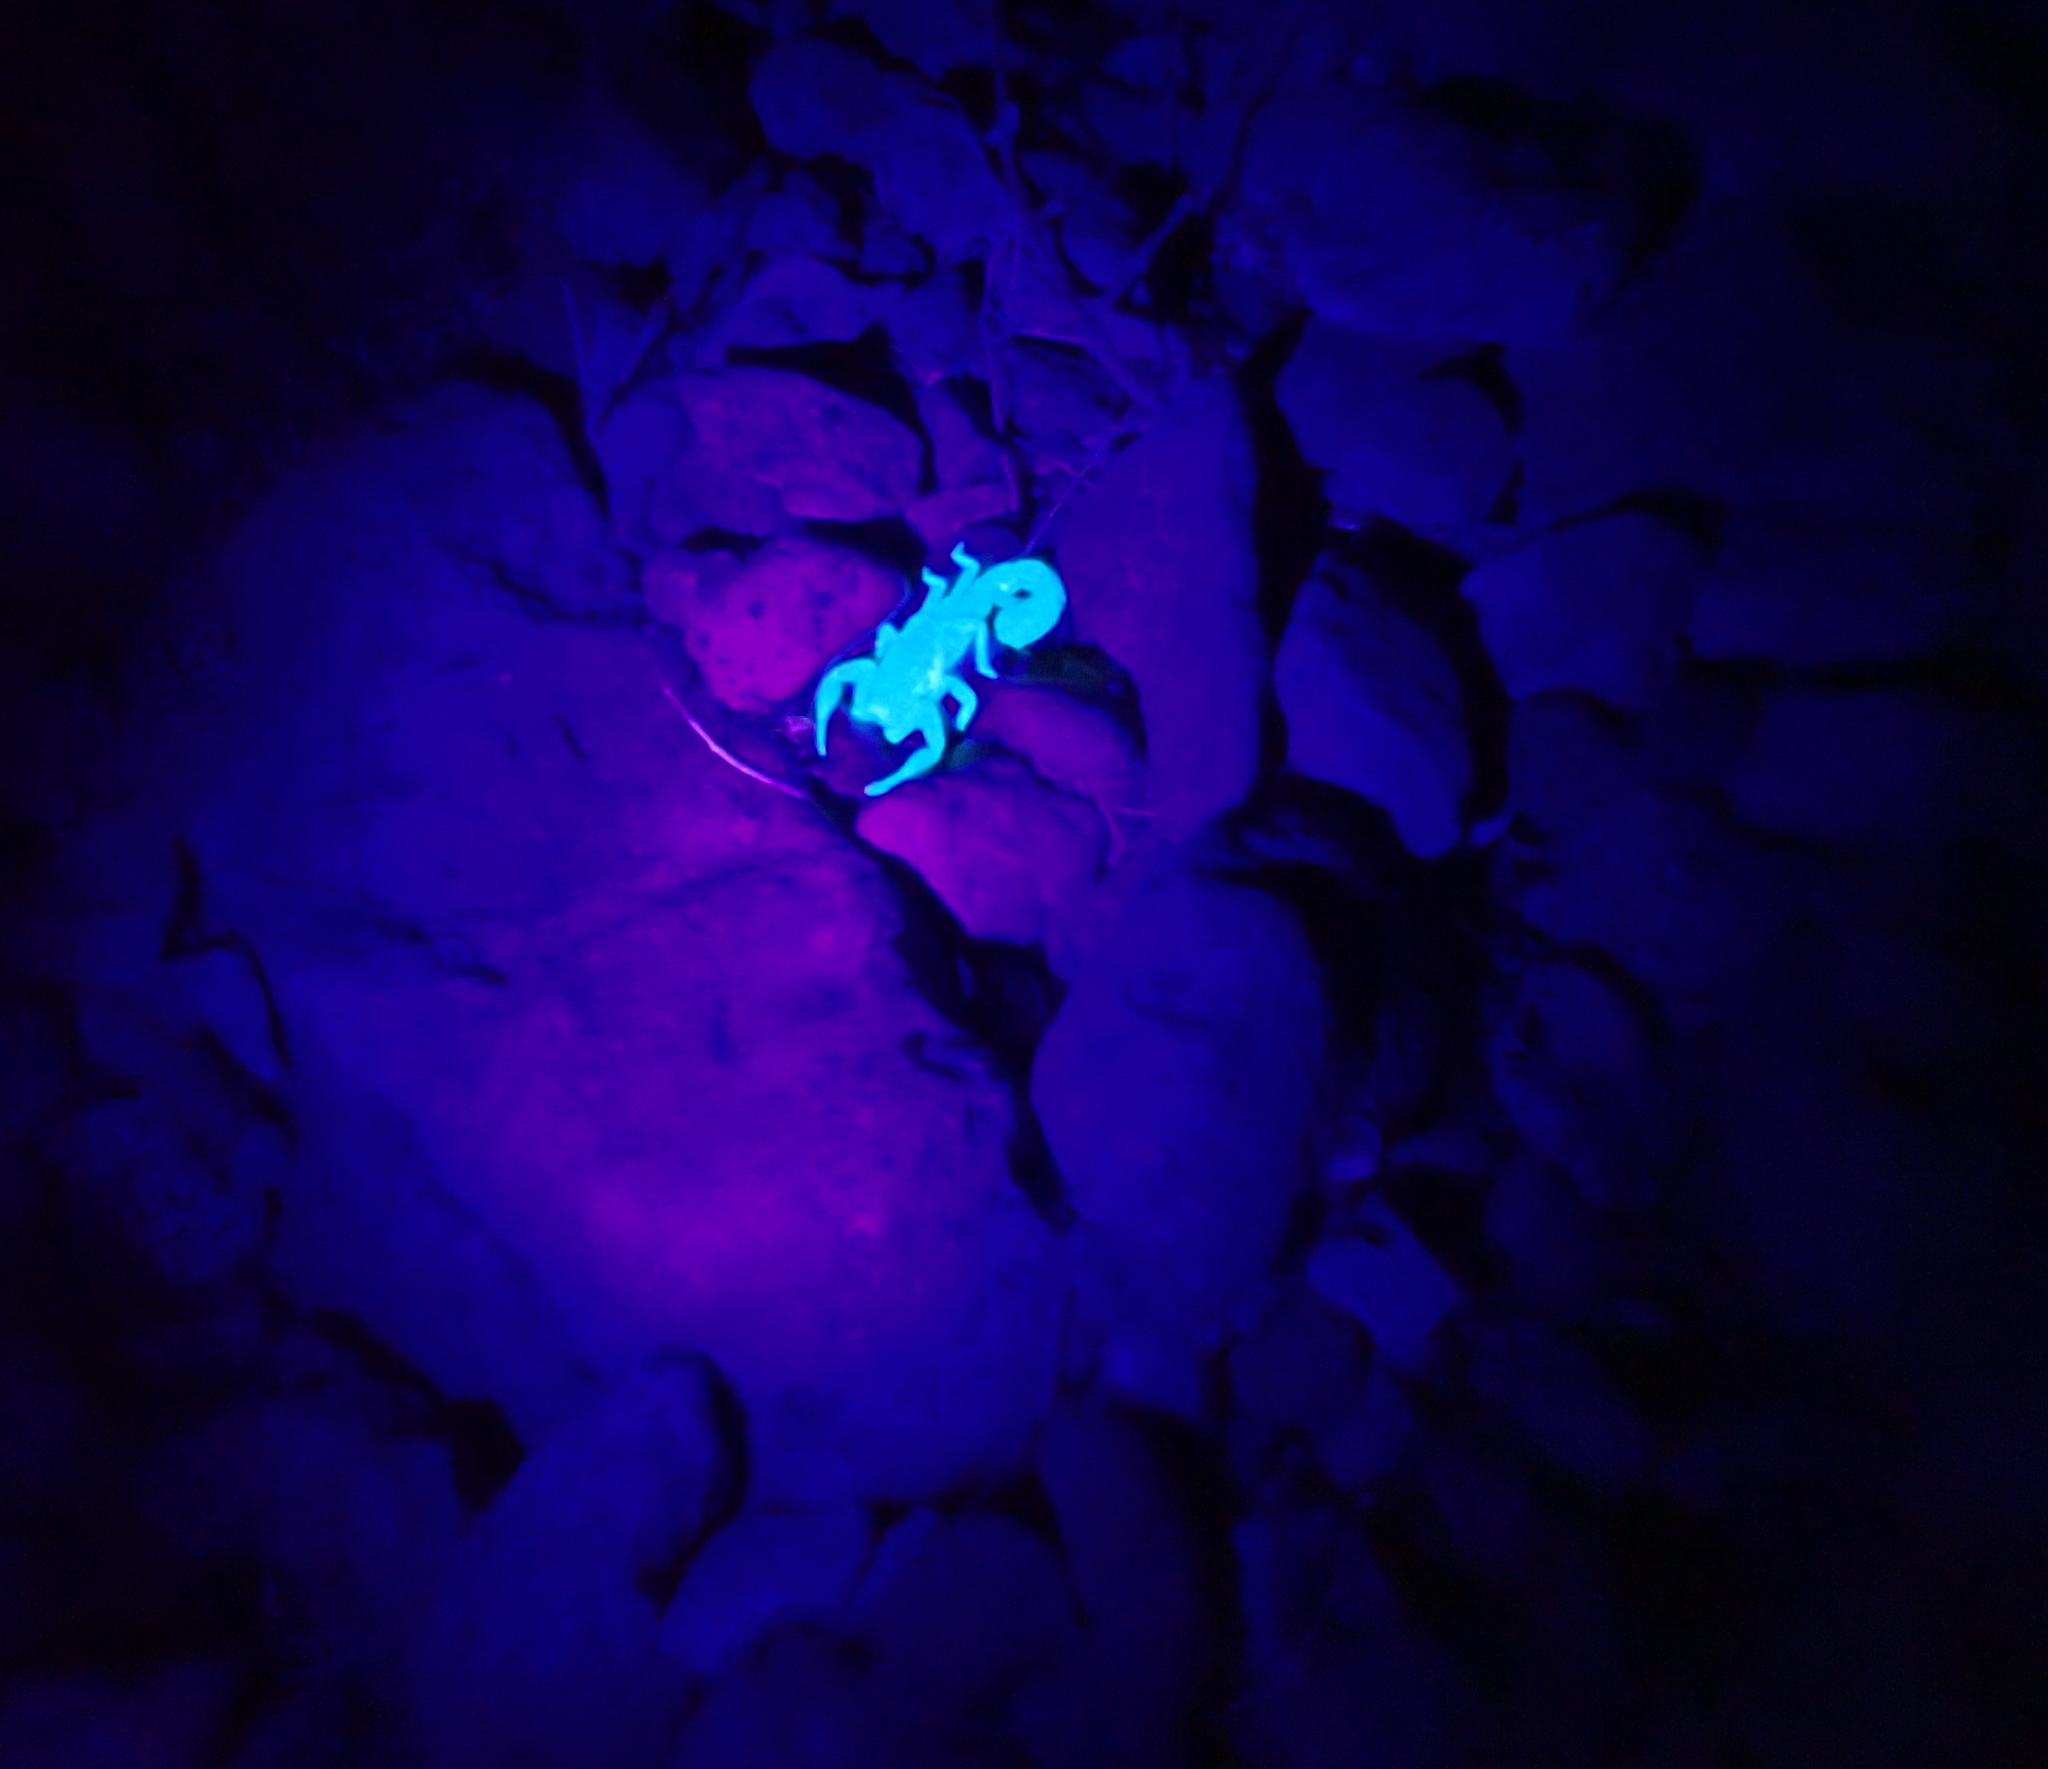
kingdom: Animalia
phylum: Arthropoda
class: Arachnida
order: Scorpiones
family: Vaejovidae
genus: Paravaejovis
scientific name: Paravaejovis confusus
